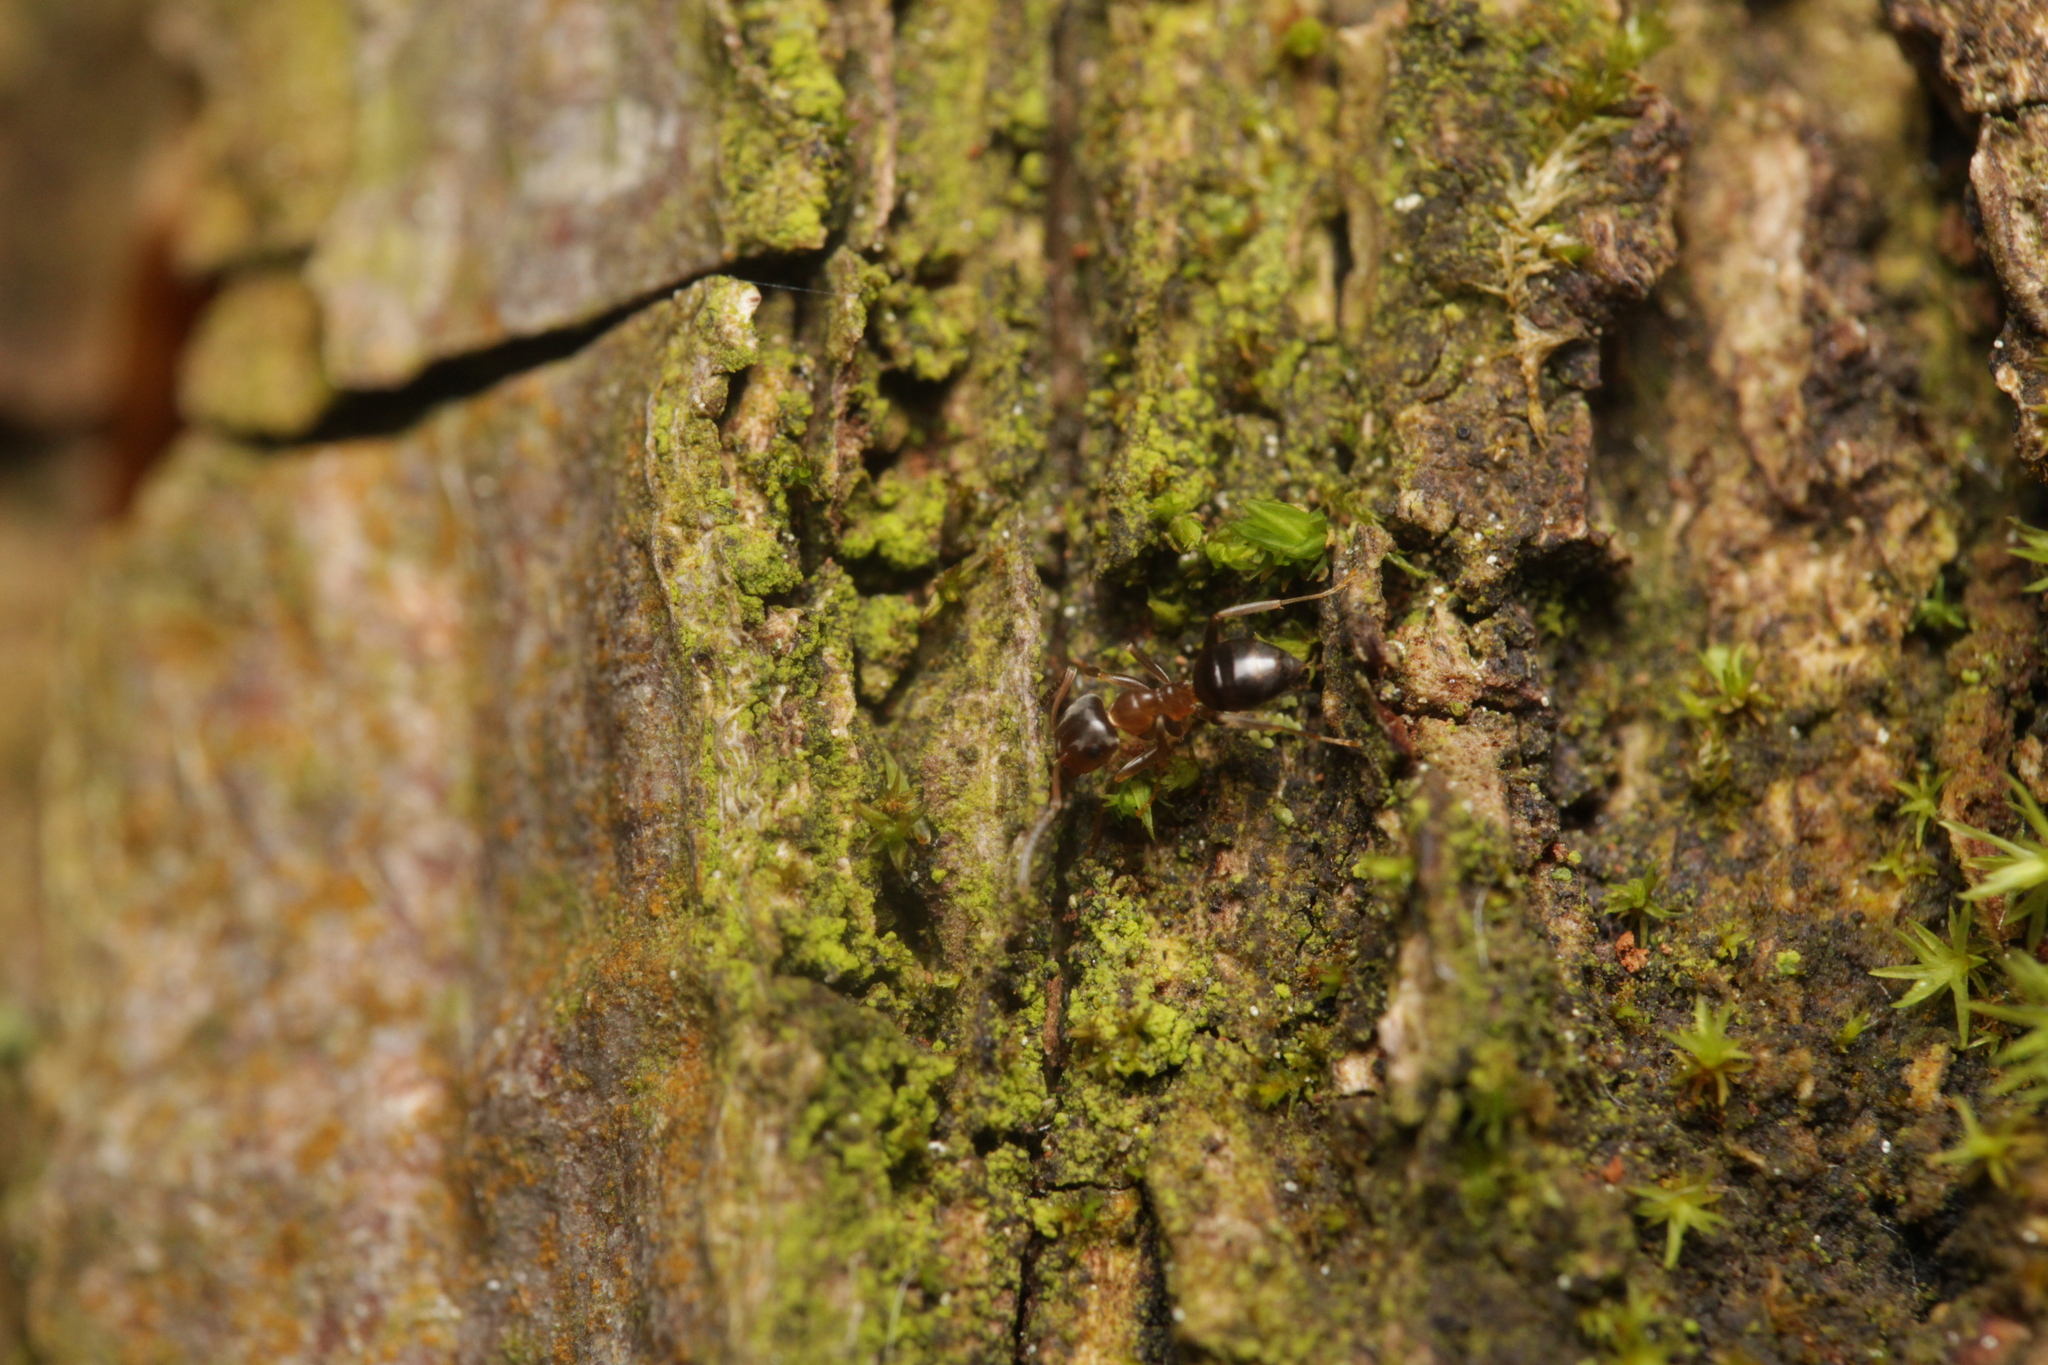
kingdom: Animalia
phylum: Arthropoda
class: Insecta
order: Hymenoptera
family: Formicidae
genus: Lasius
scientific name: Lasius brunneus
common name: Brown ant
